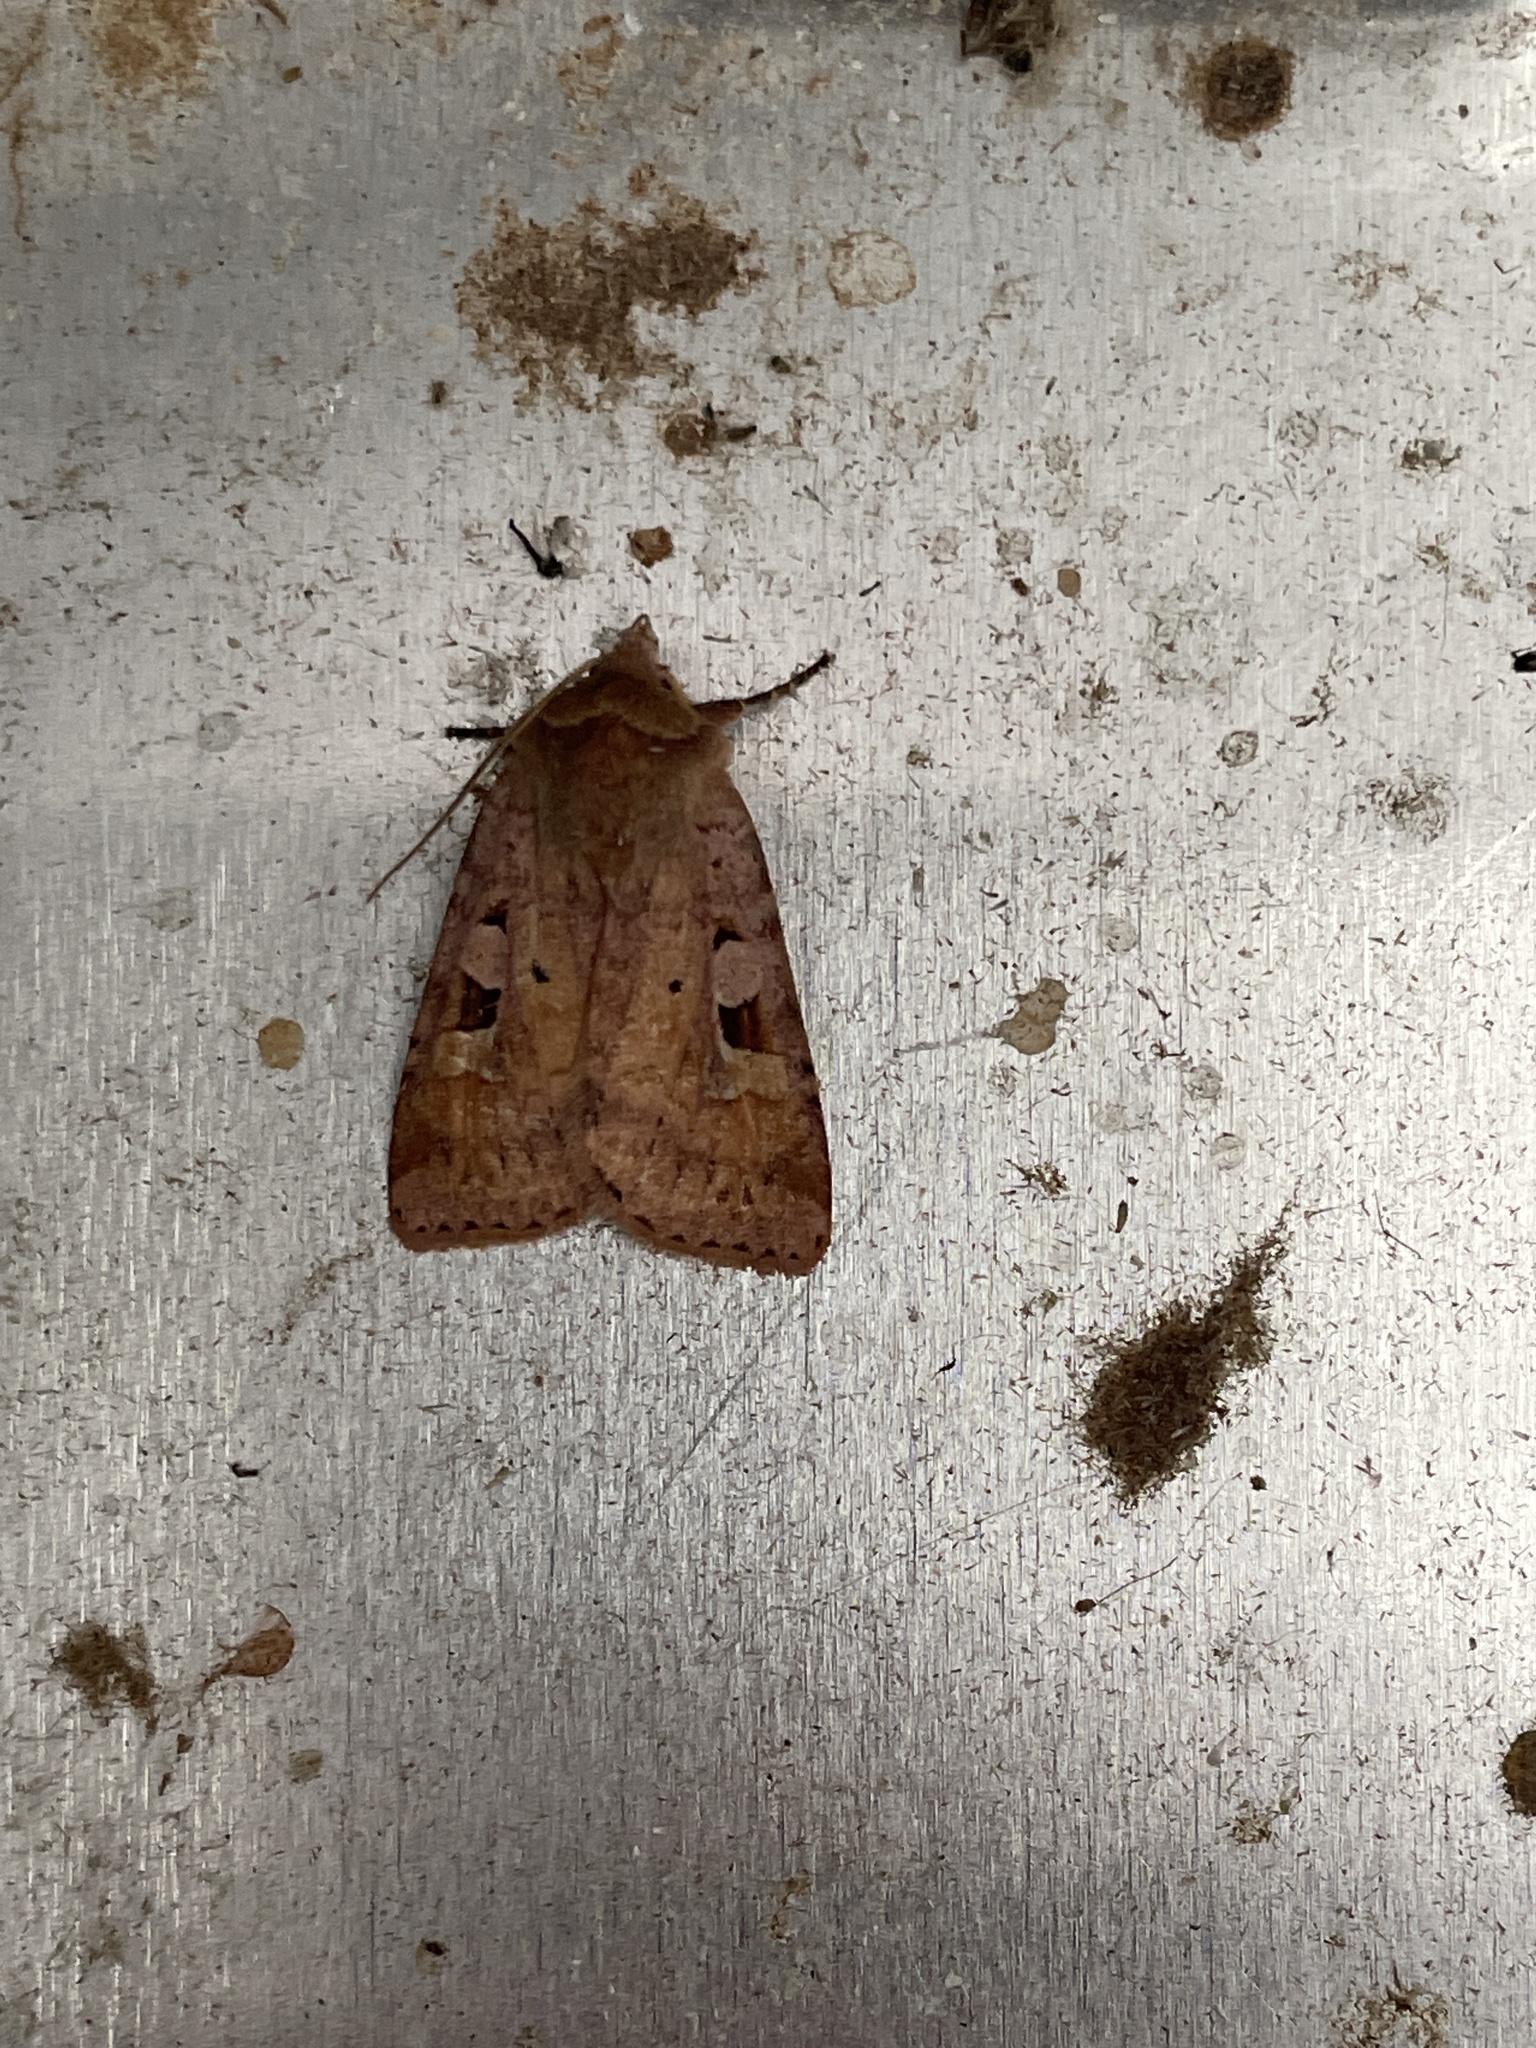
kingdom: Animalia
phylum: Arthropoda
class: Insecta
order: Lepidoptera
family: Noctuidae
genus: Diarsia
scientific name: Diarsia mendica
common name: Ingrailed clay
